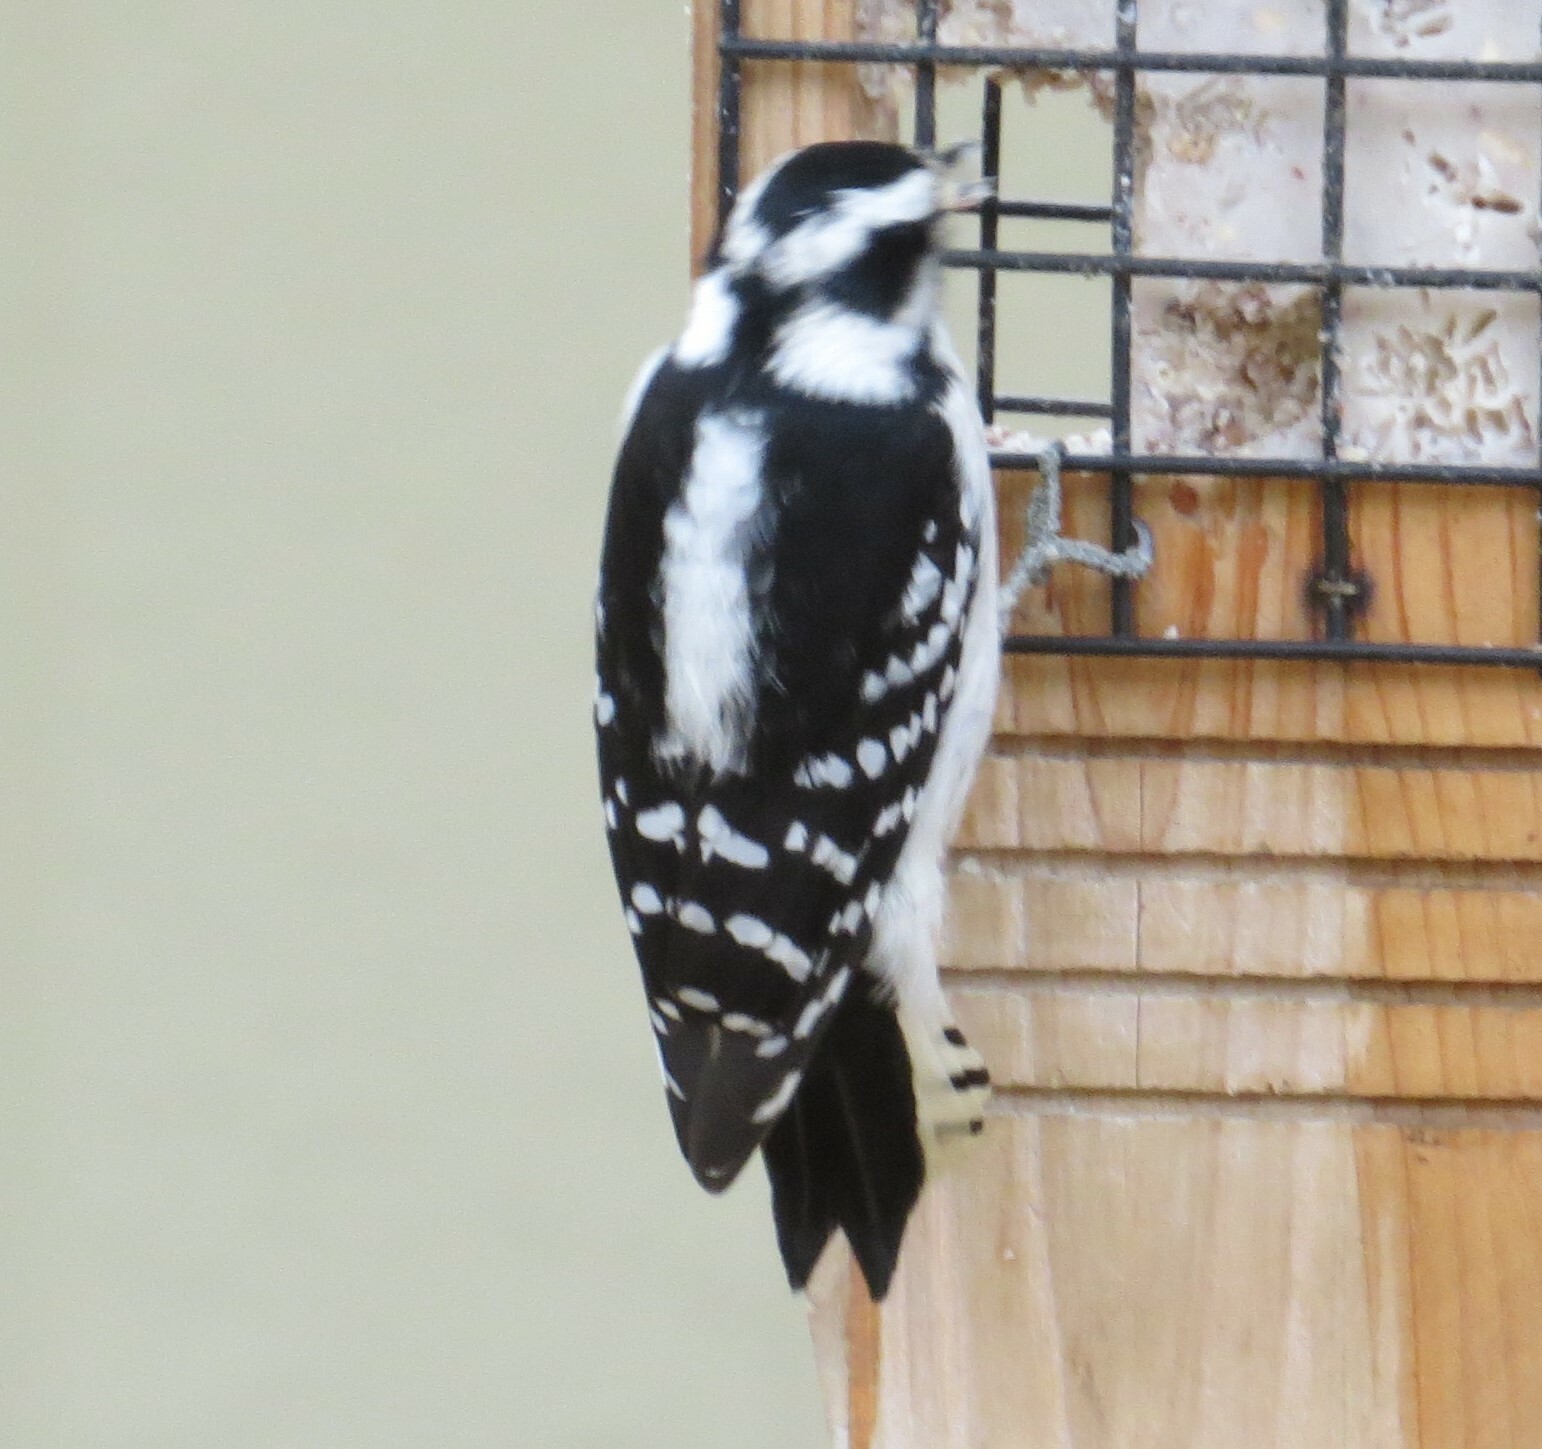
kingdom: Animalia
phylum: Chordata
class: Aves
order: Piciformes
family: Picidae
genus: Dryobates
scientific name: Dryobates pubescens
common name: Downy woodpecker
